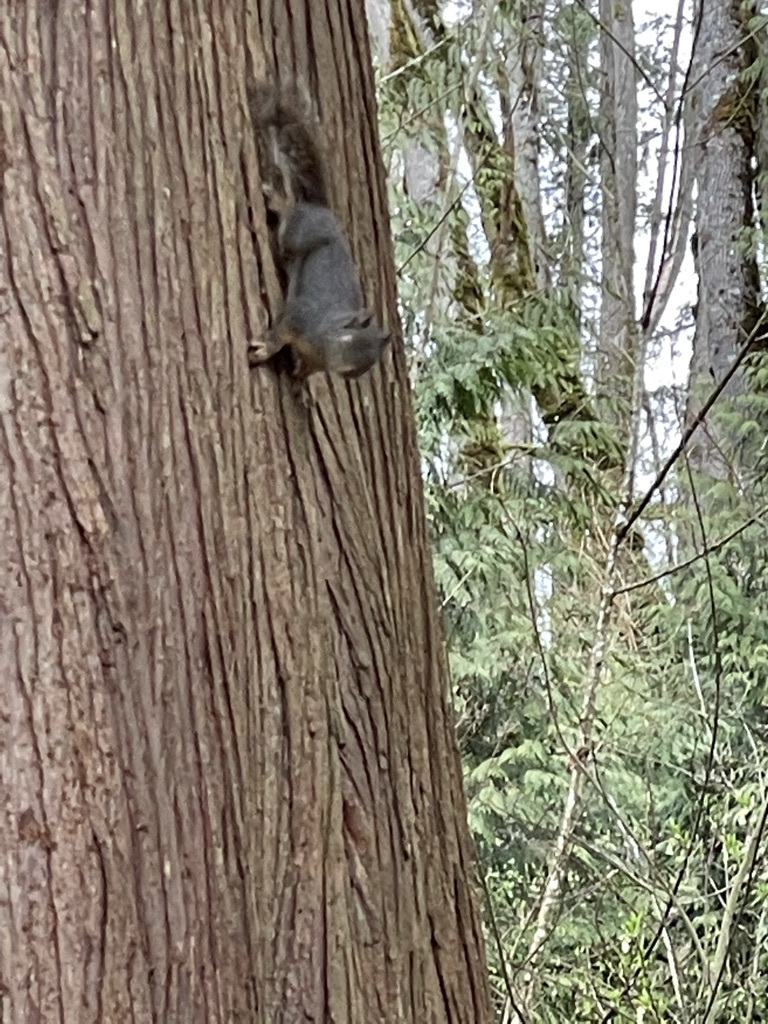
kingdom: Animalia
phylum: Chordata
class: Mammalia
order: Rodentia
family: Sciuridae
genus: Tamiasciurus
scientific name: Tamiasciurus douglasii
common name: Douglas's squirrel
